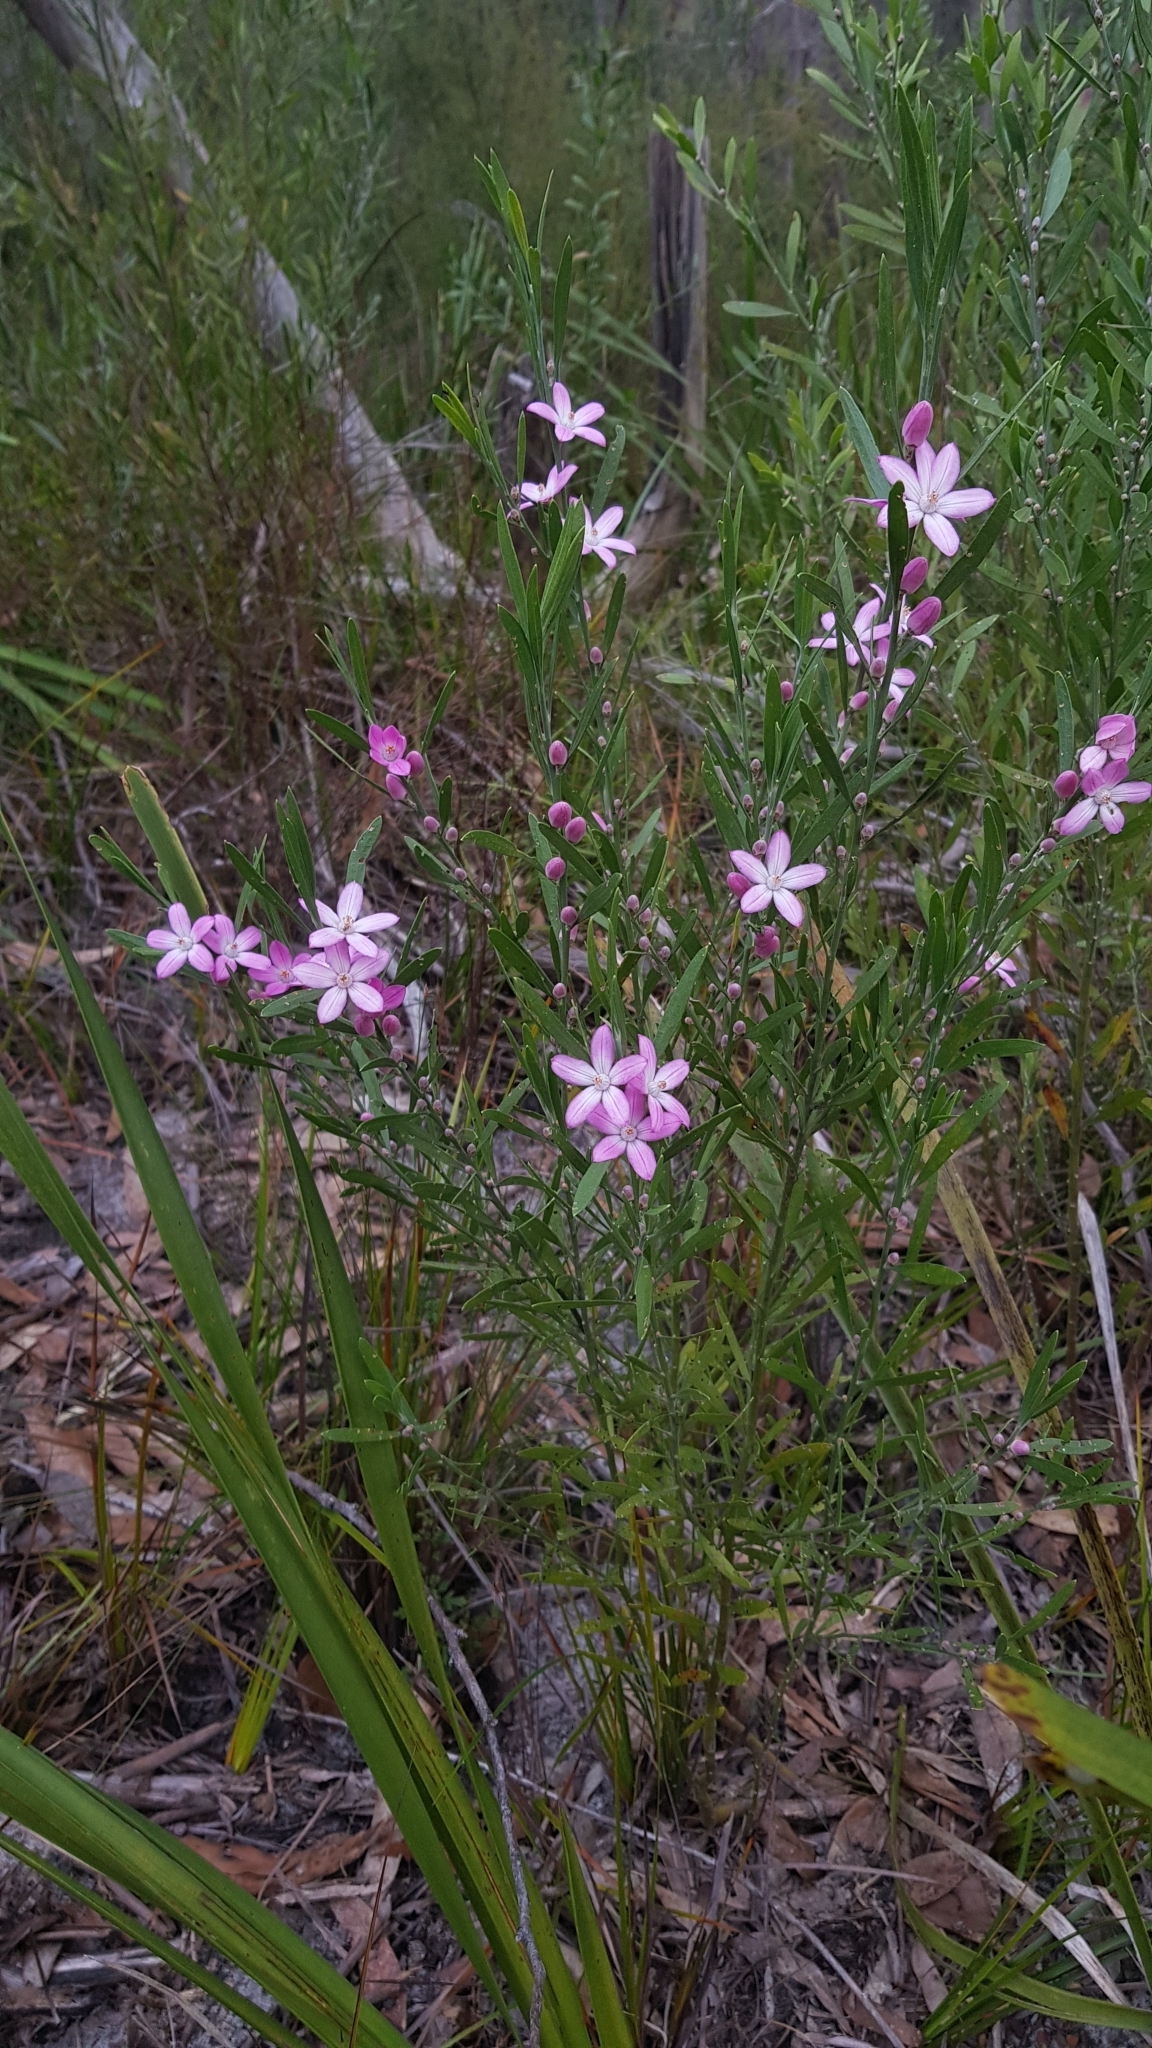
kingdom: Plantae
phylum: Tracheophyta
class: Magnoliopsida
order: Sapindales
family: Rutaceae
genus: Eriostemon
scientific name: Eriostemon australasius
